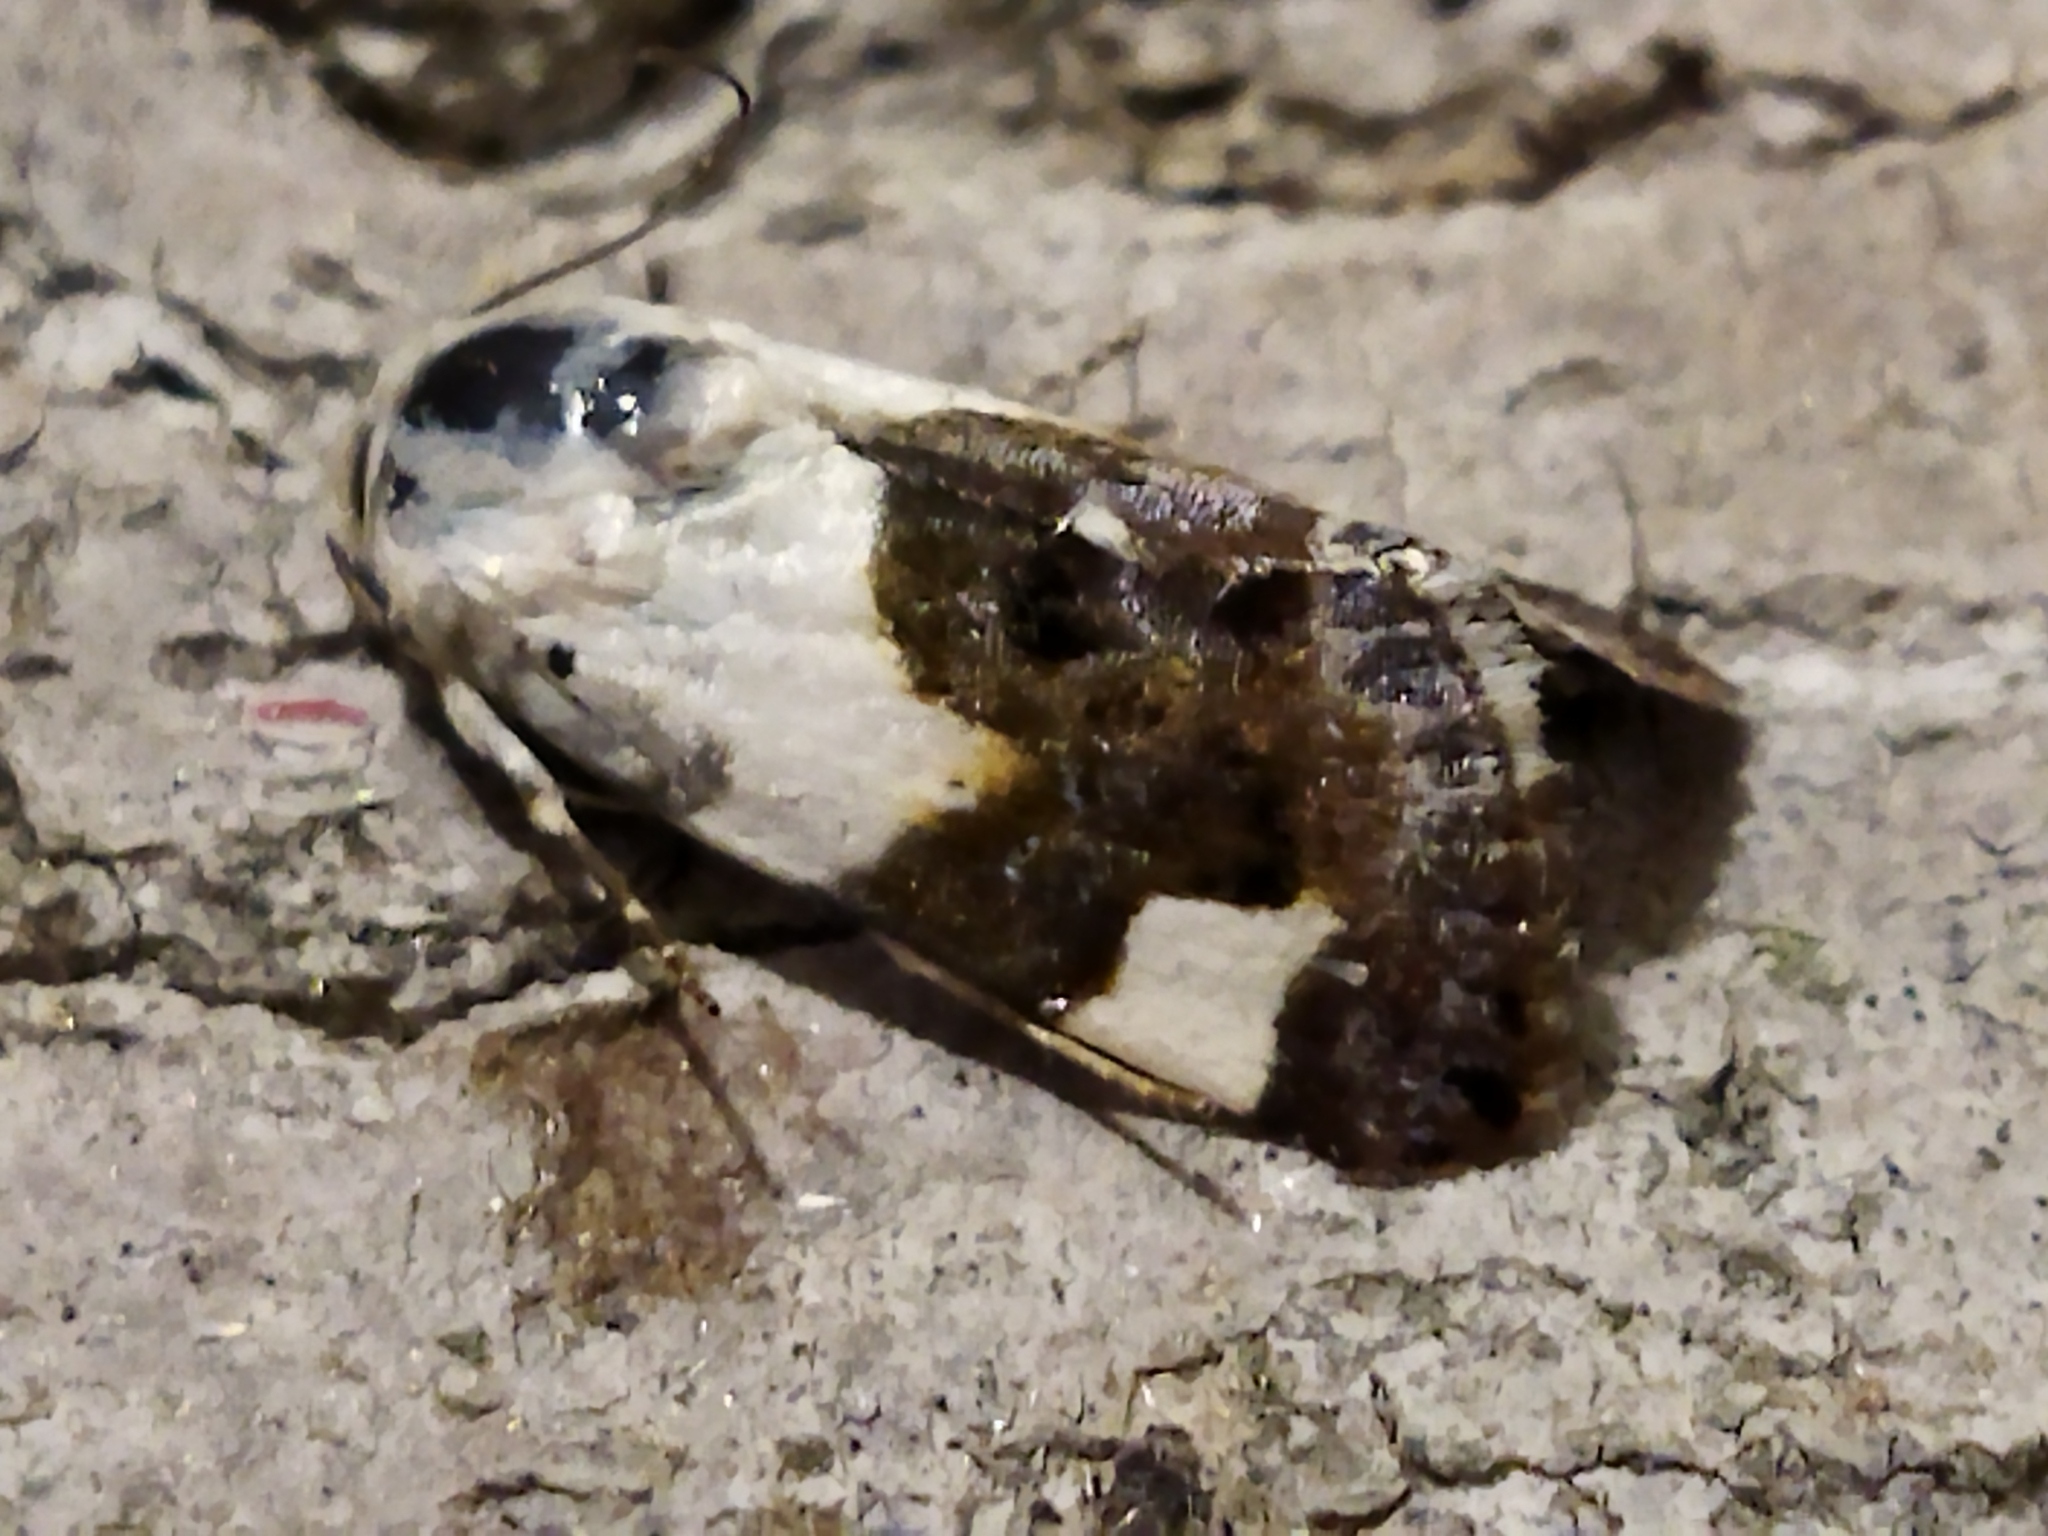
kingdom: Animalia
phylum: Arthropoda
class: Insecta
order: Lepidoptera
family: Noctuidae
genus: Acontia
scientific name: Acontia lucida
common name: Pale shoulder
